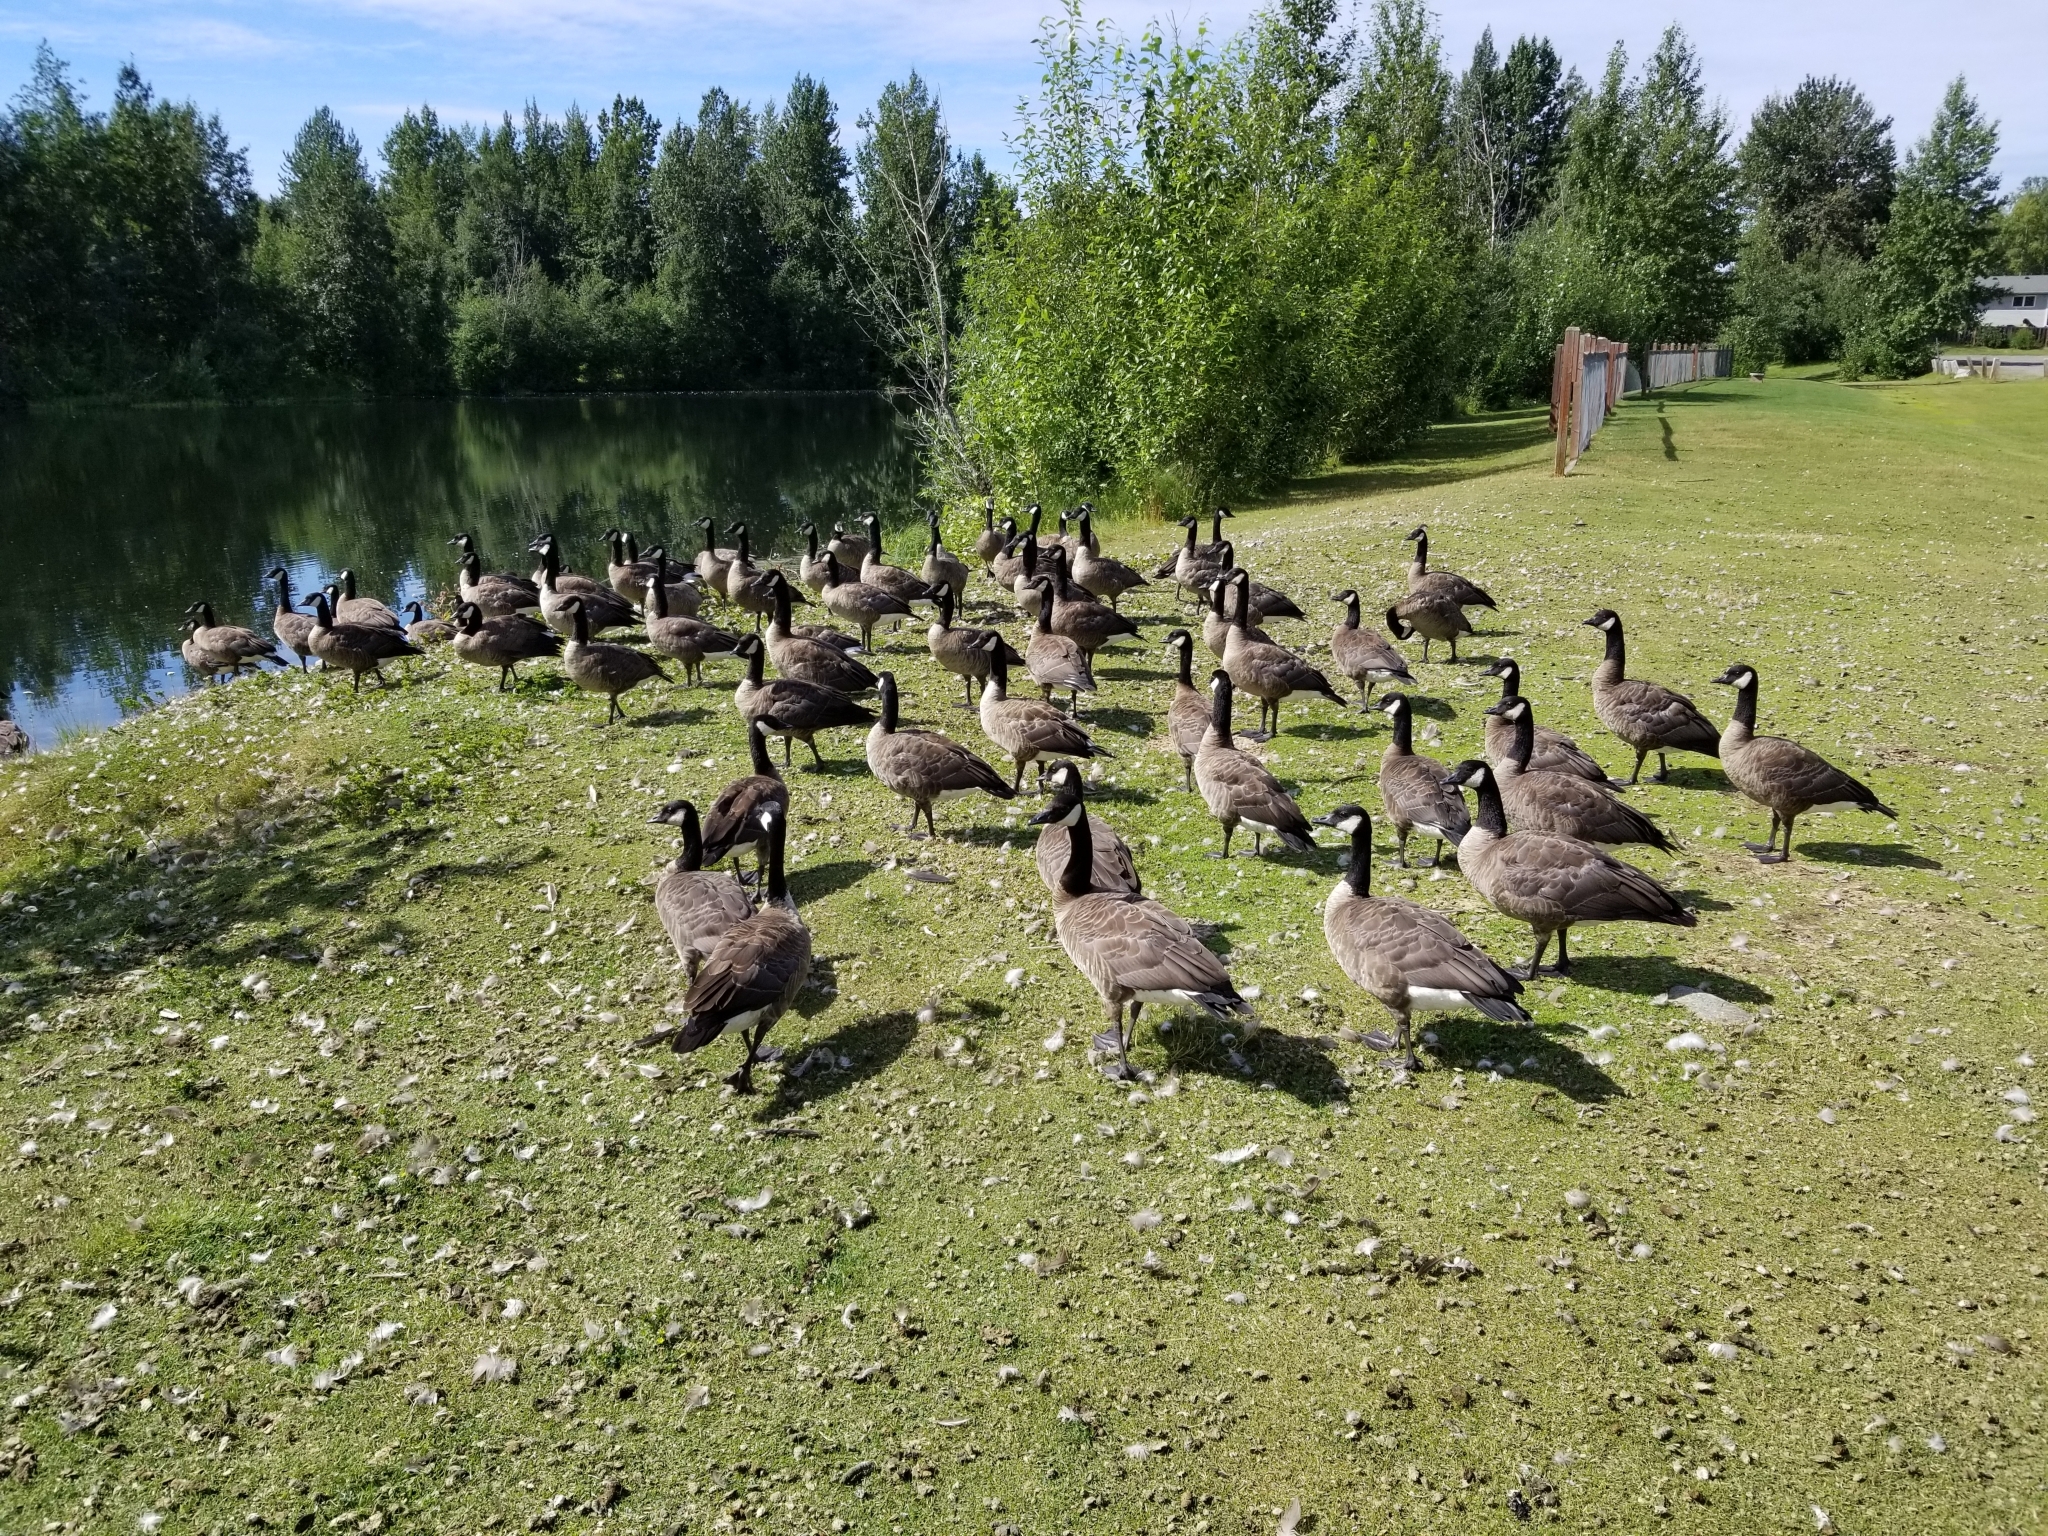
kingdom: Animalia
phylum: Chordata
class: Aves
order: Anseriformes
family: Anatidae
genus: Branta
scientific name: Branta canadensis
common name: Canada goose
